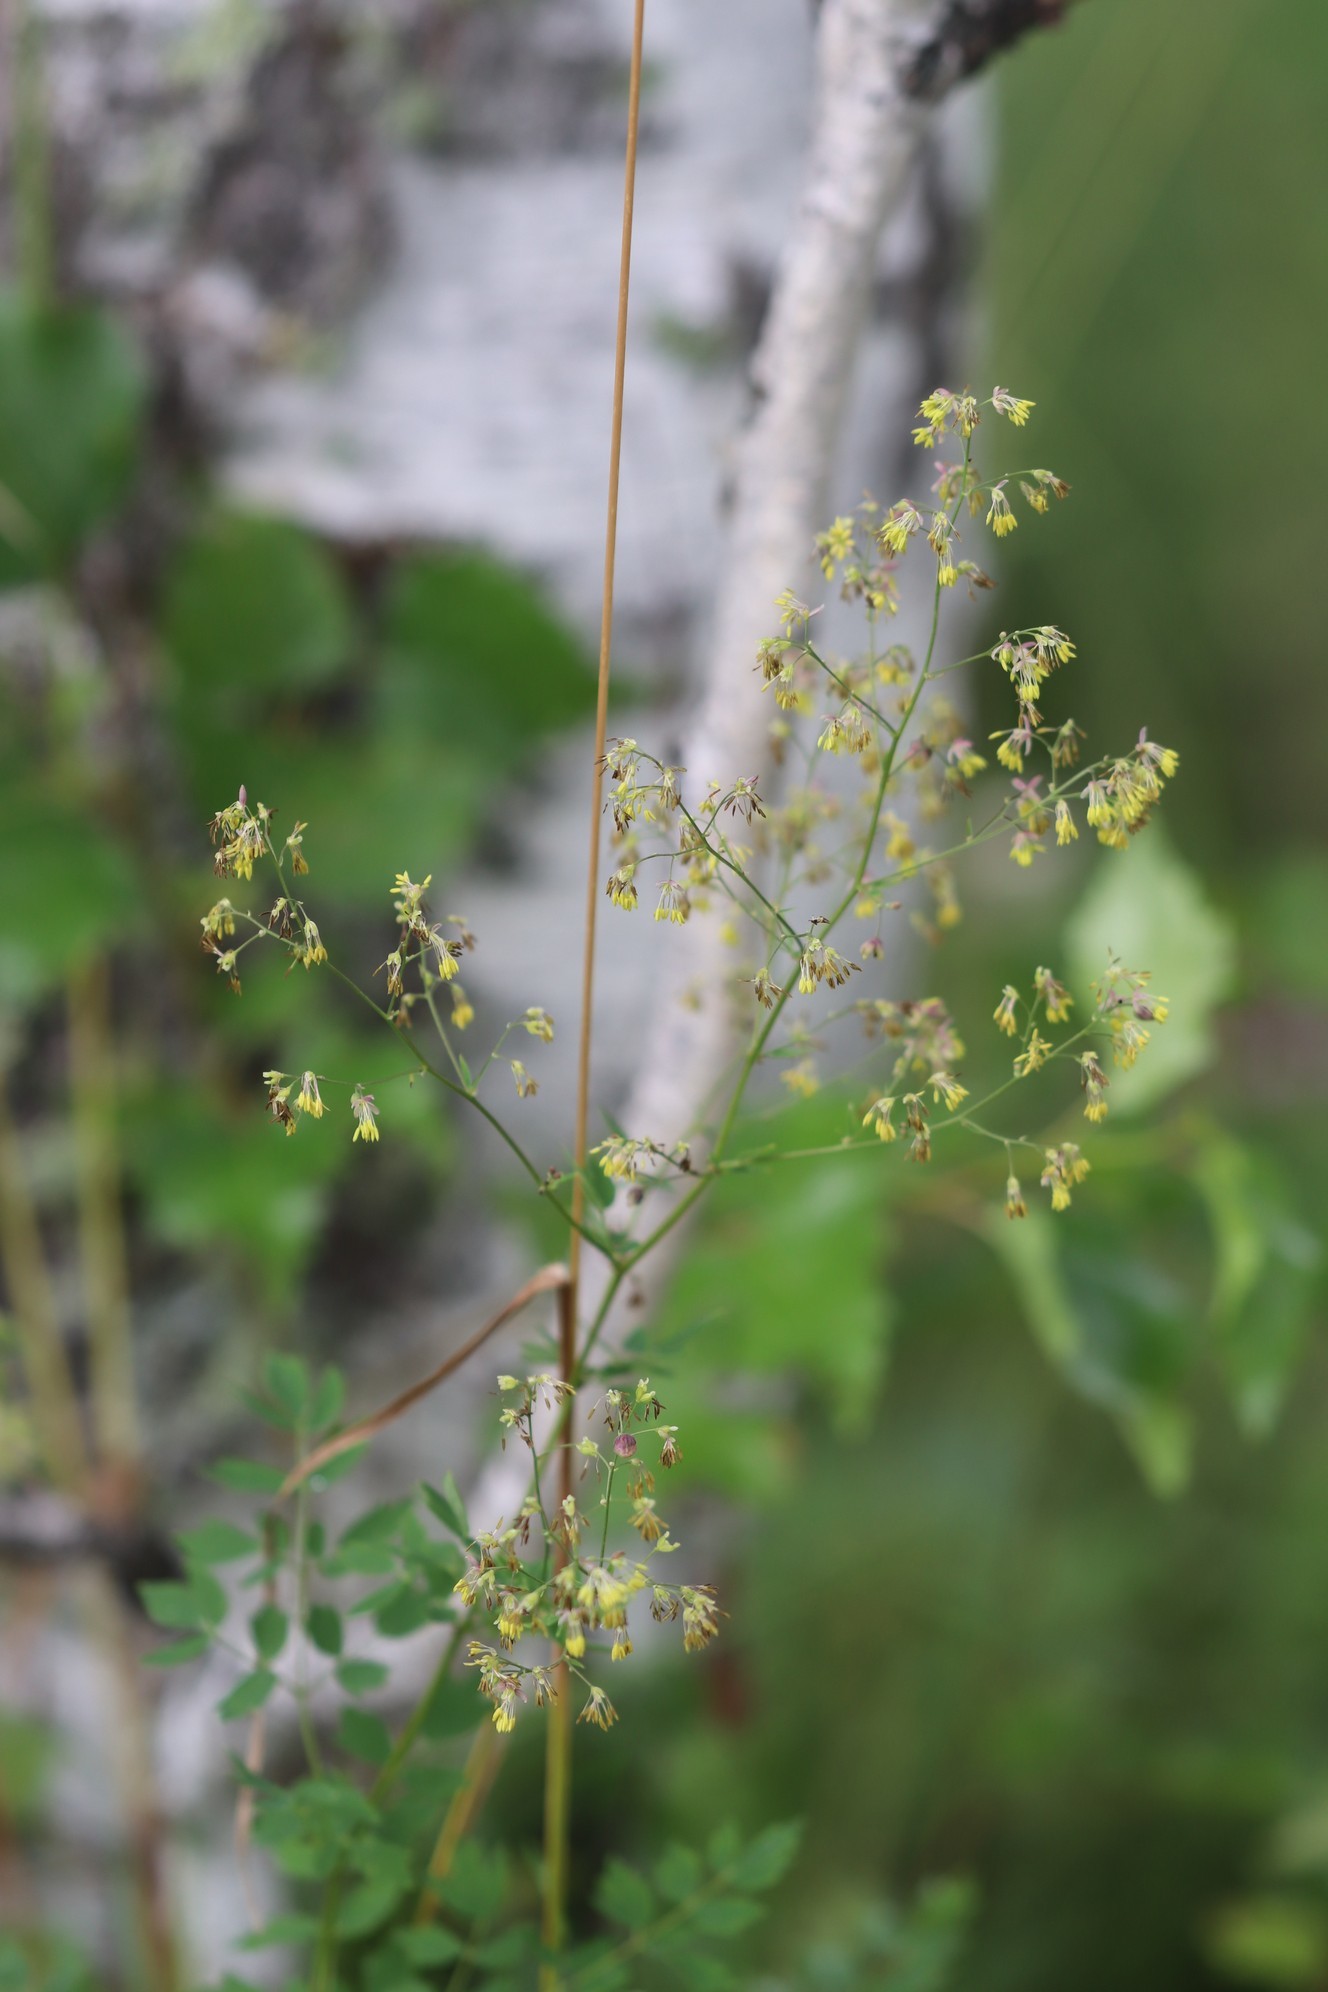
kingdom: Plantae
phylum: Tracheophyta
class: Magnoliopsida
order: Ranunculales
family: Ranunculaceae
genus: Thalictrum
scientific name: Thalictrum minus
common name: Lesser meadow-rue
